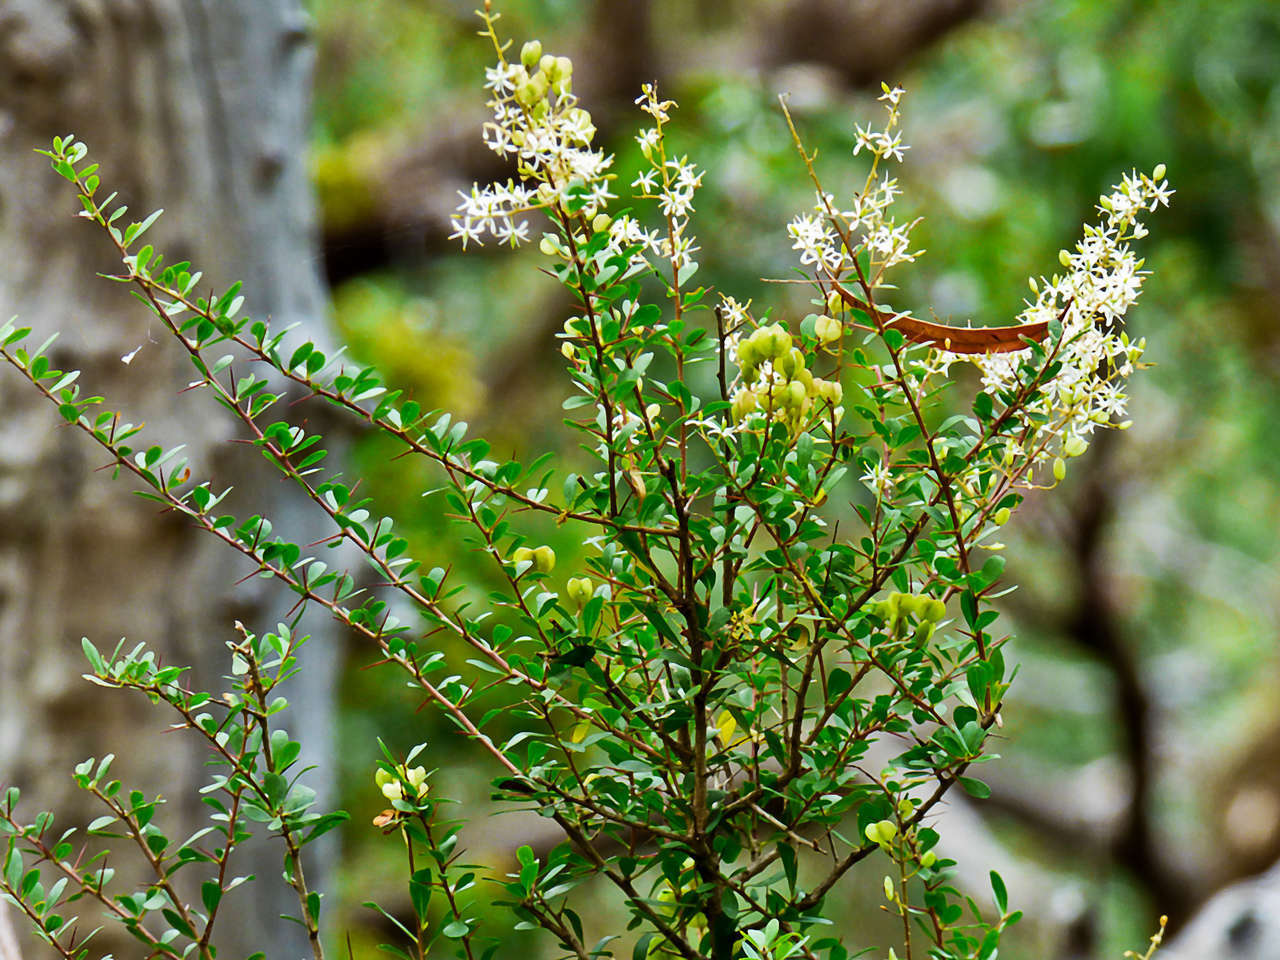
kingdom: Plantae
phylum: Tracheophyta
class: Magnoliopsida
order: Apiales
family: Pittosporaceae
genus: Bursaria
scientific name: Bursaria spinosa
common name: Australian blackthorn
